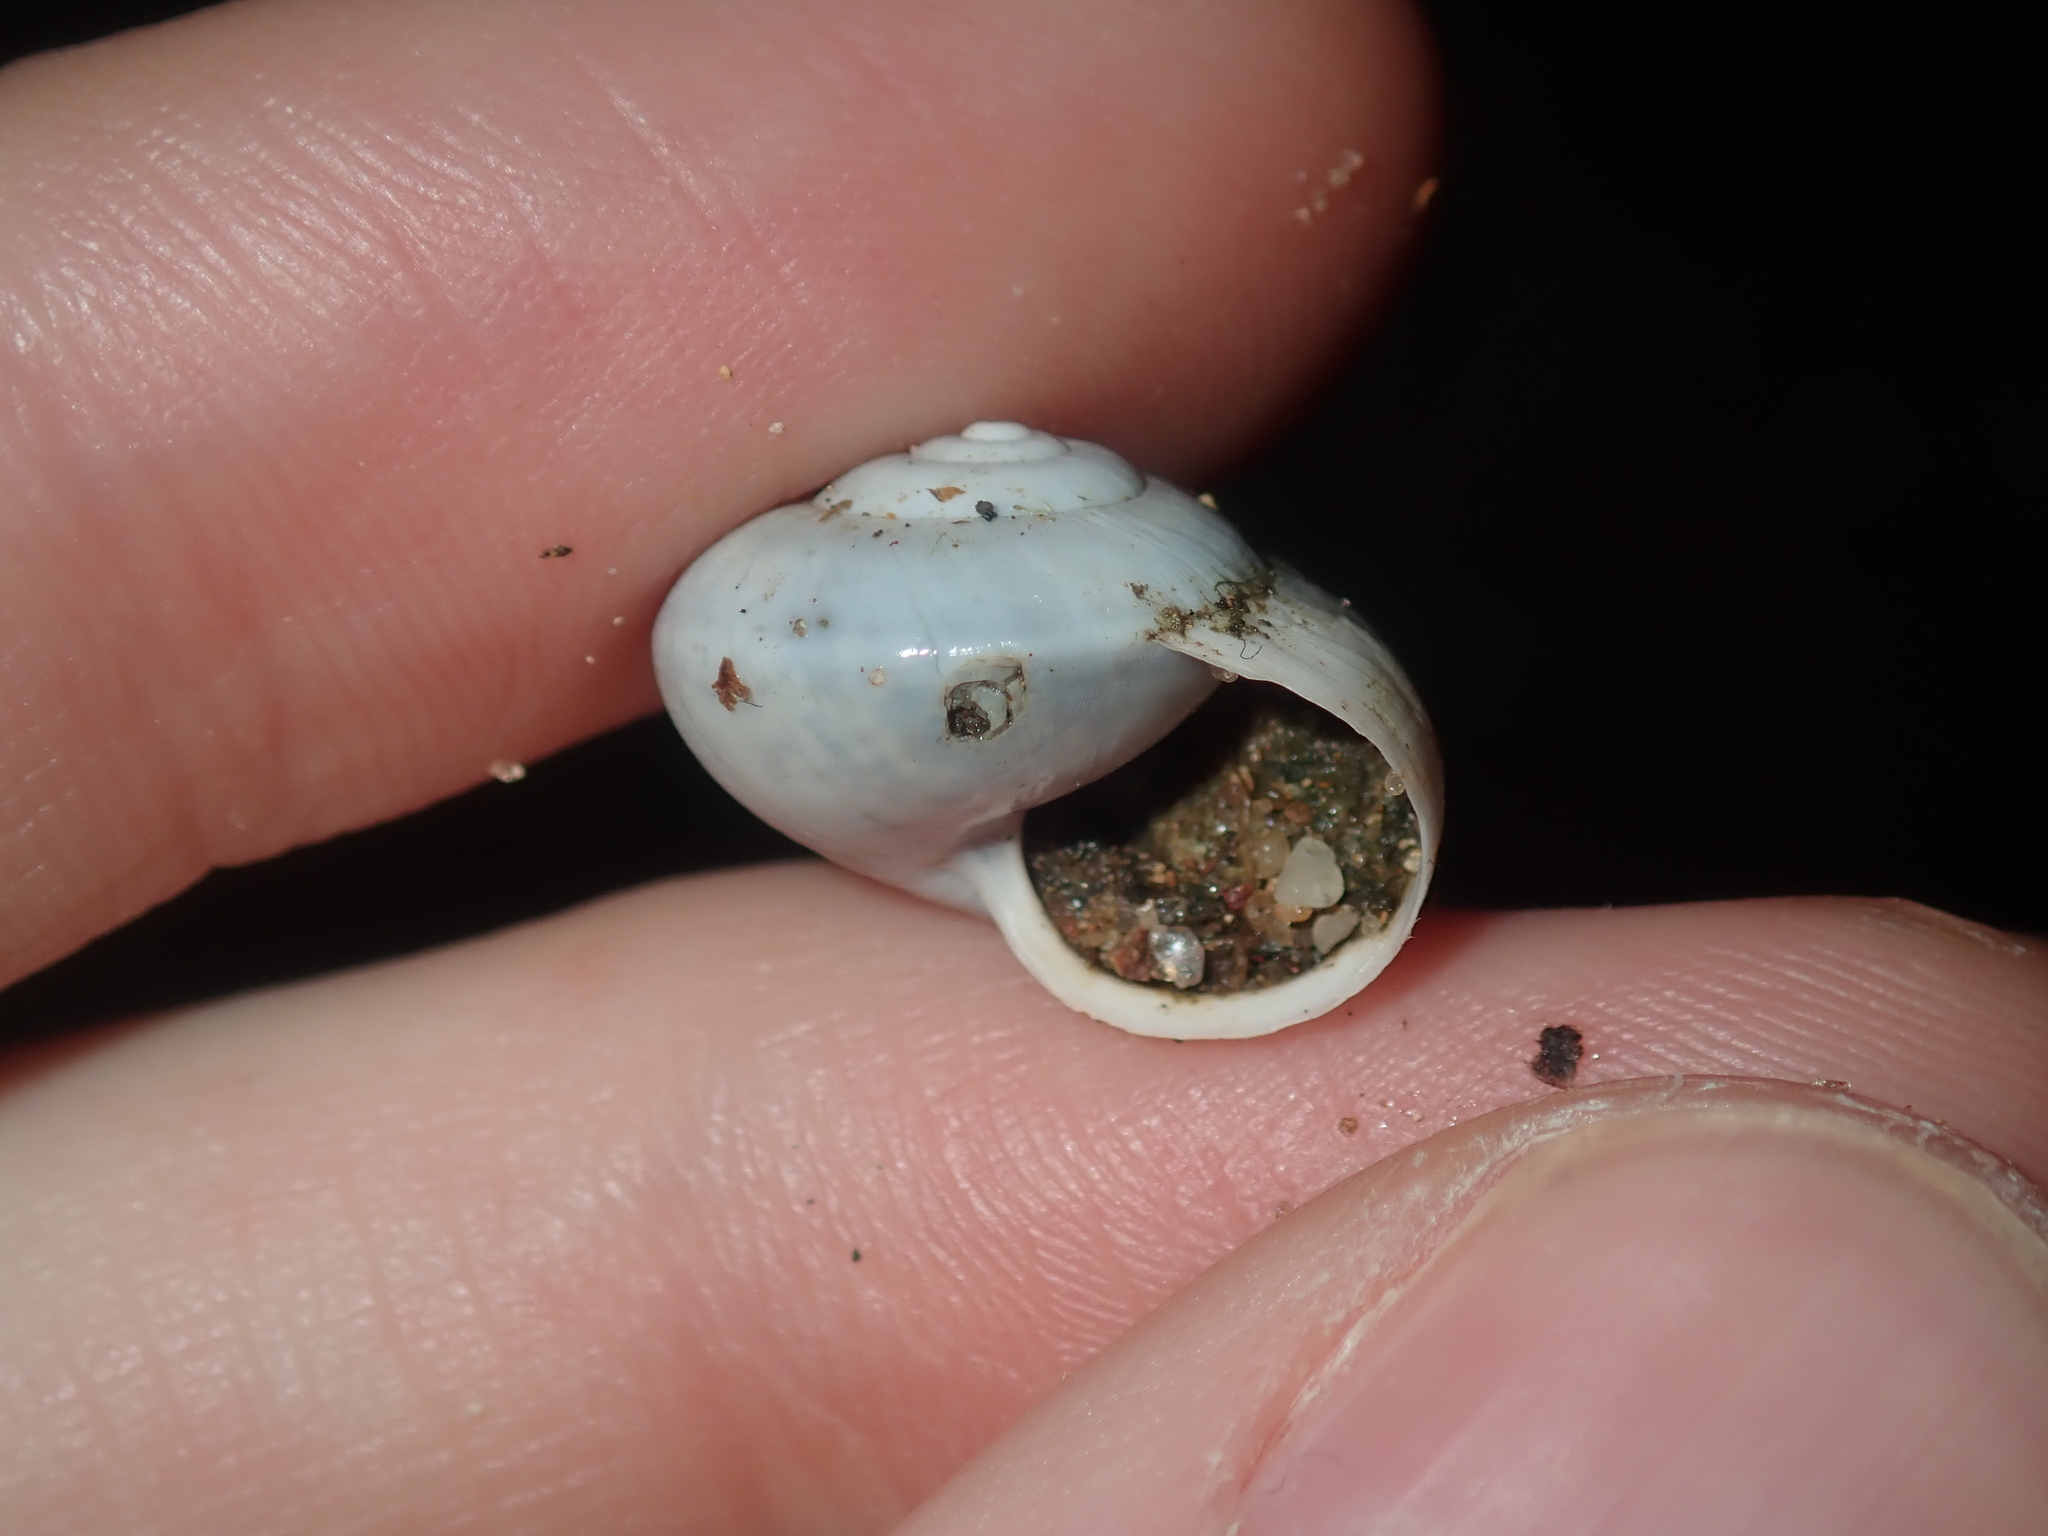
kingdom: Animalia
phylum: Mollusca
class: Gastropoda
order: Stylommatophora
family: Helicidae
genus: Theba
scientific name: Theba pisana
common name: White snail
